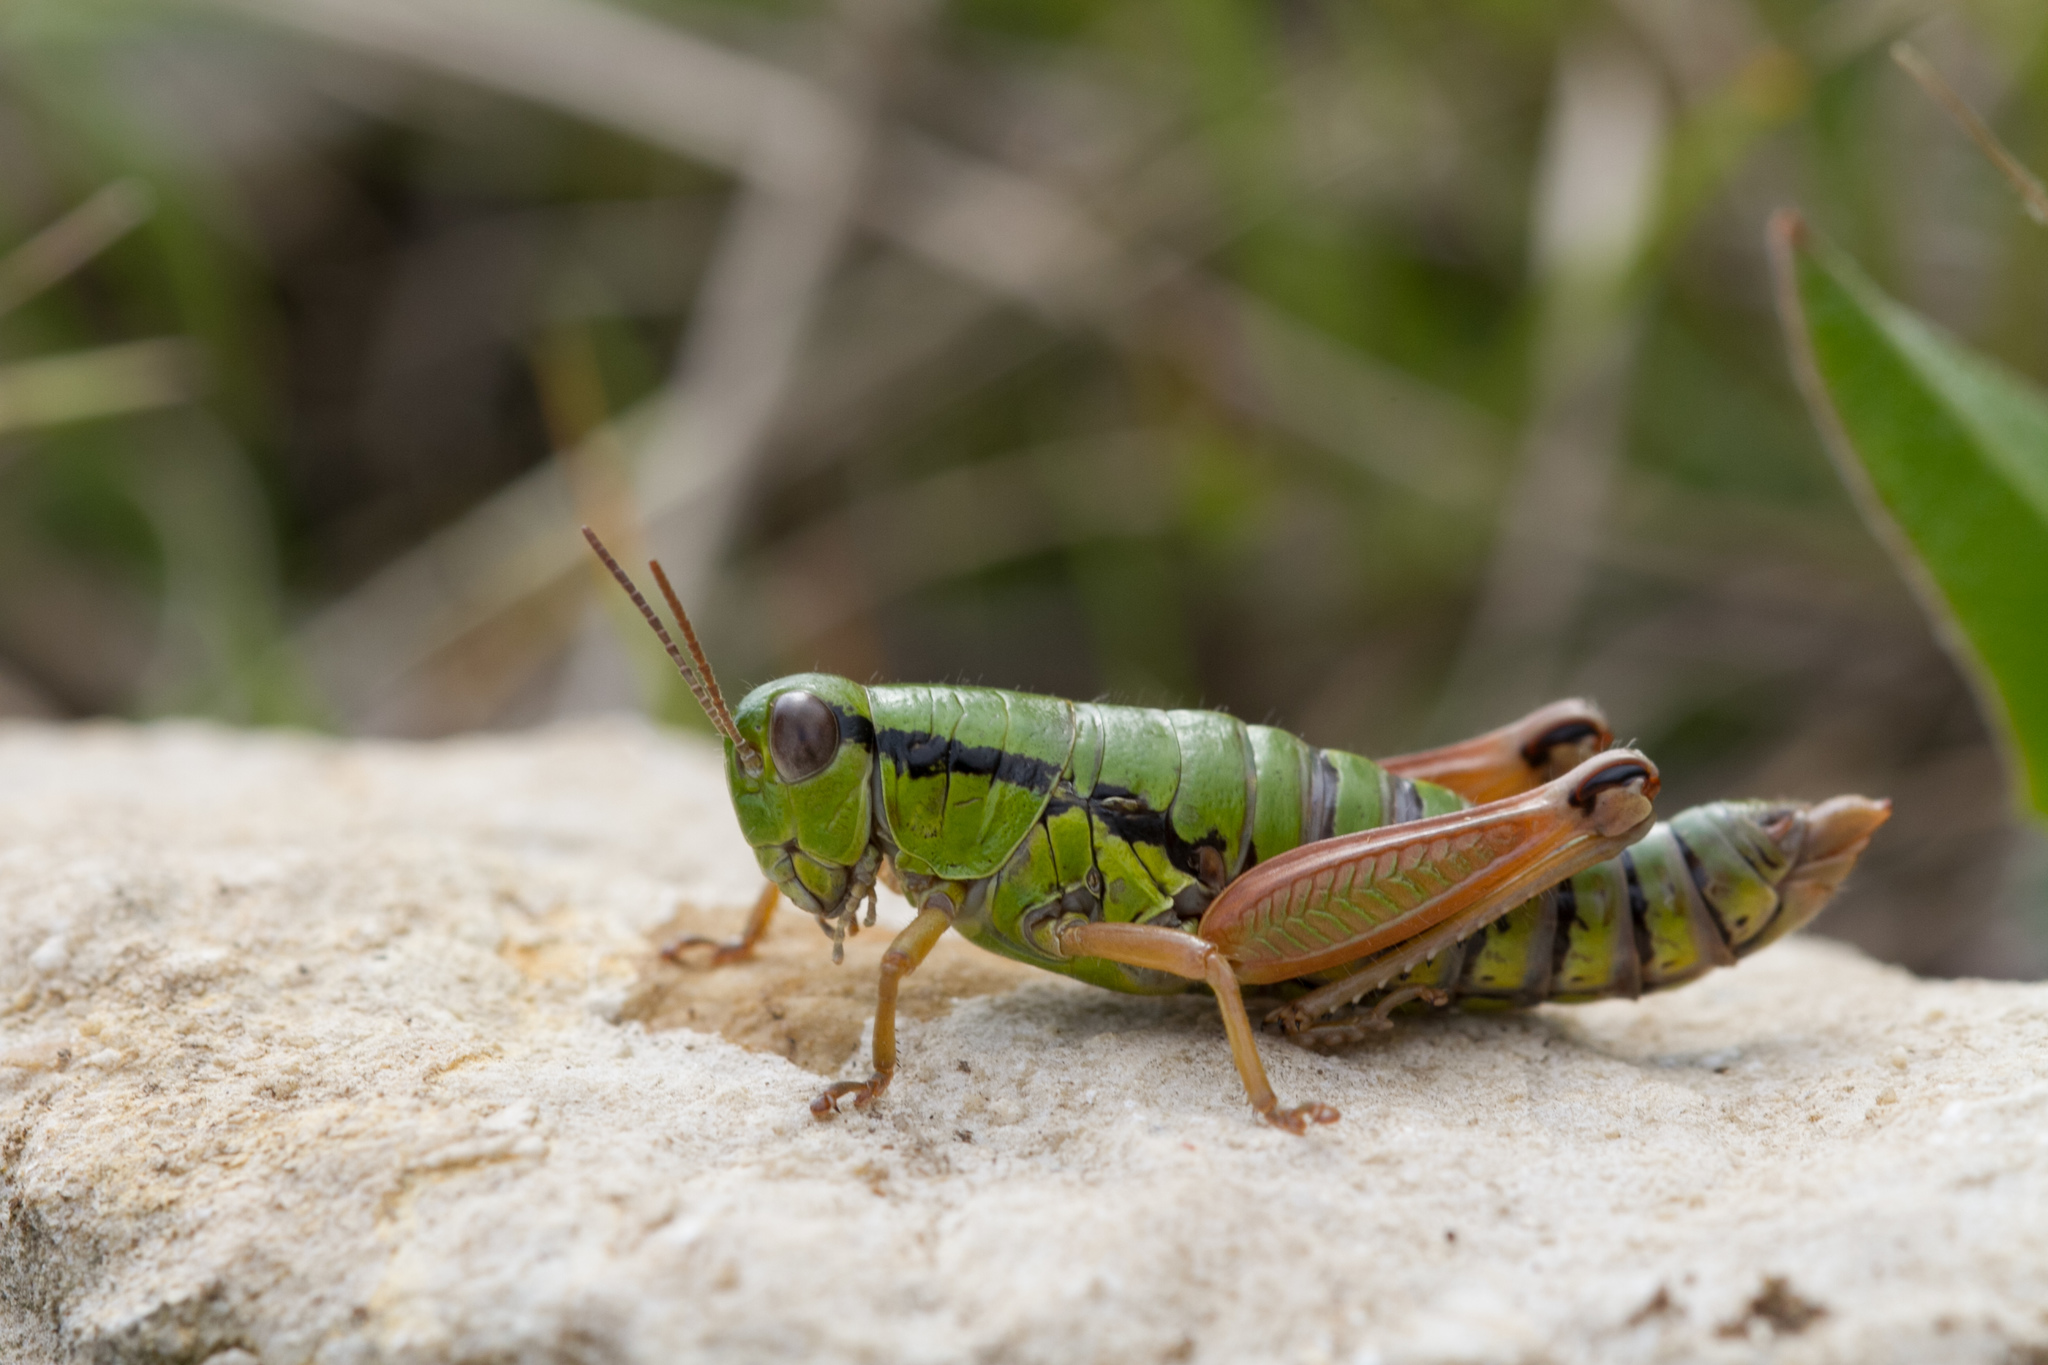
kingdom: Animalia
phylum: Arthropoda
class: Insecta
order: Orthoptera
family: Acrididae
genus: Pseudoprumna
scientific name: Pseudoprumna baldensis
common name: Baldo mountain grasshopper
